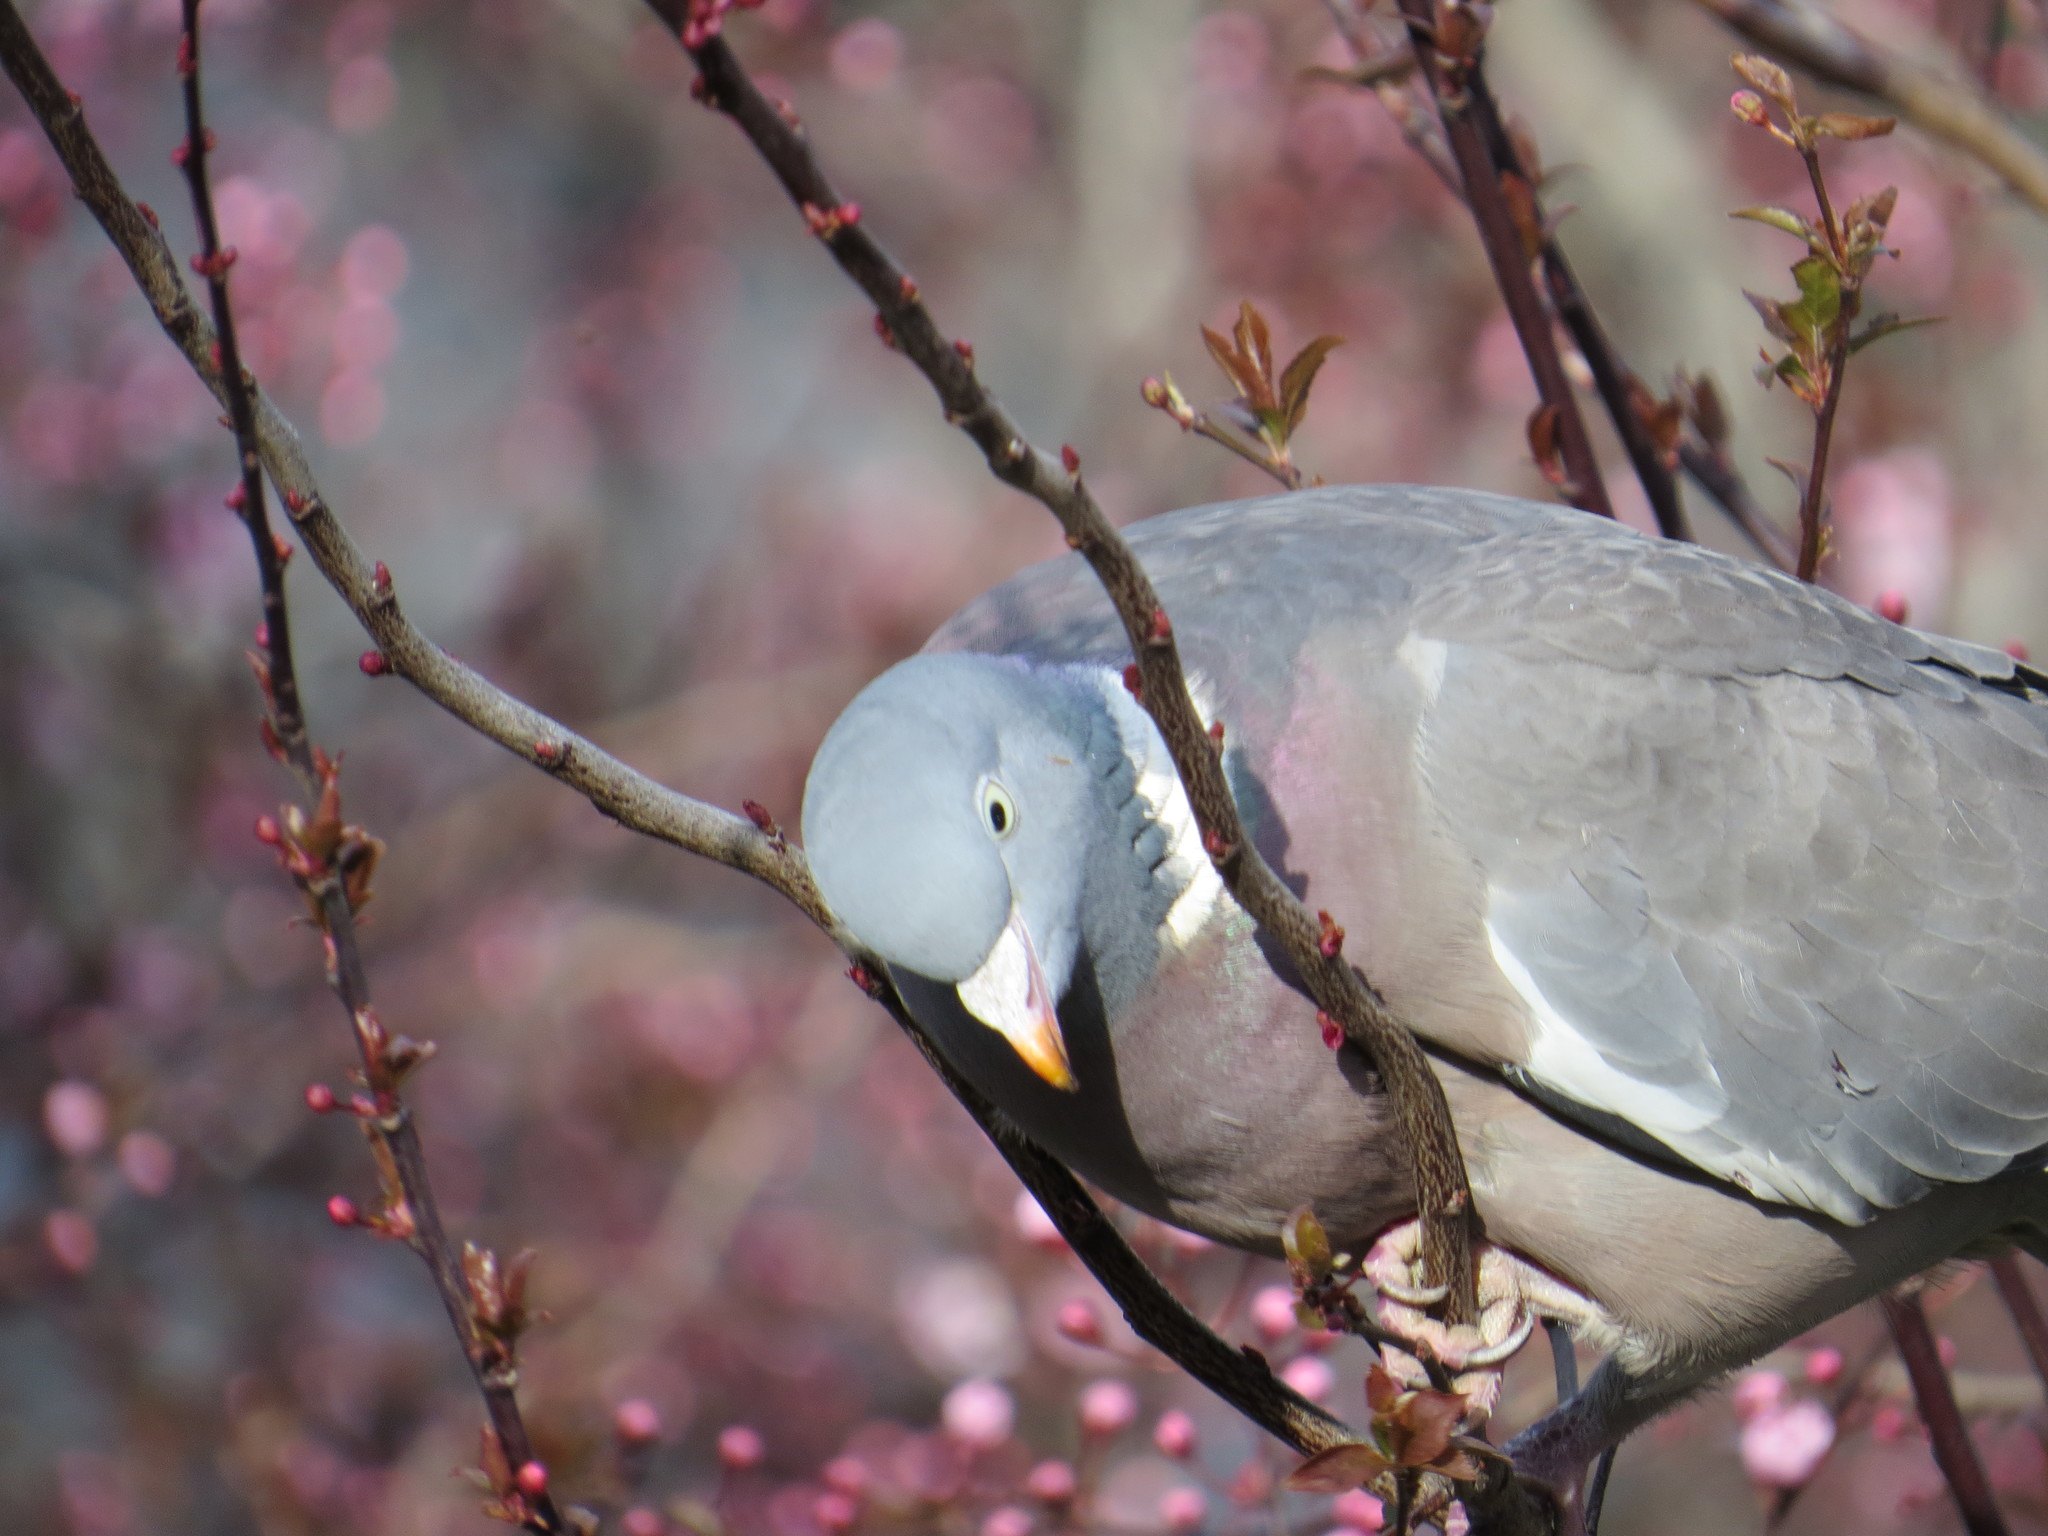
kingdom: Animalia
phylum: Chordata
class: Aves
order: Columbiformes
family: Columbidae
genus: Columba
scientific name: Columba palumbus
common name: Common wood pigeon
